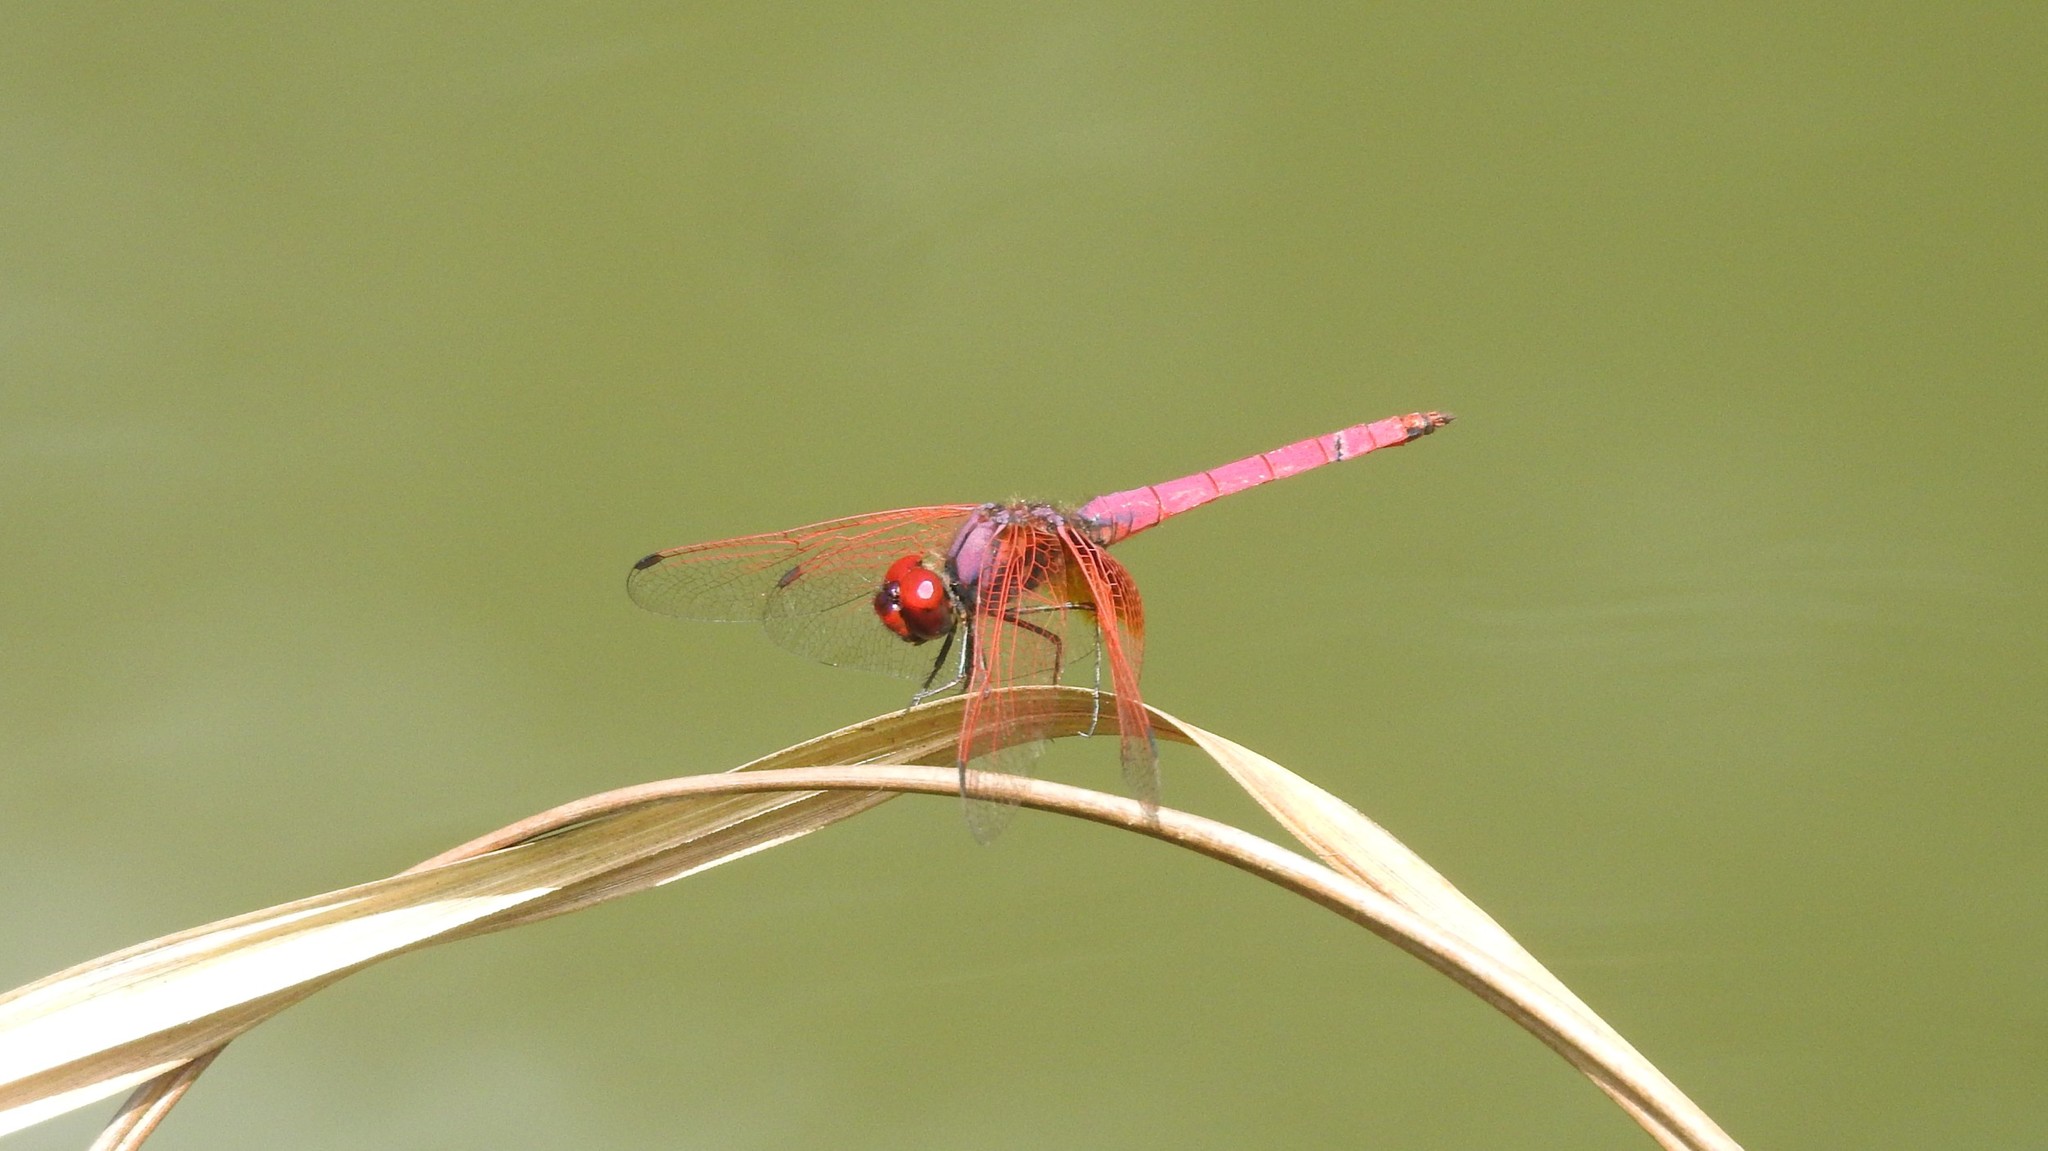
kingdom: Animalia
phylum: Arthropoda
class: Insecta
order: Odonata
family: Libellulidae
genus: Trithemis
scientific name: Trithemis aurora
